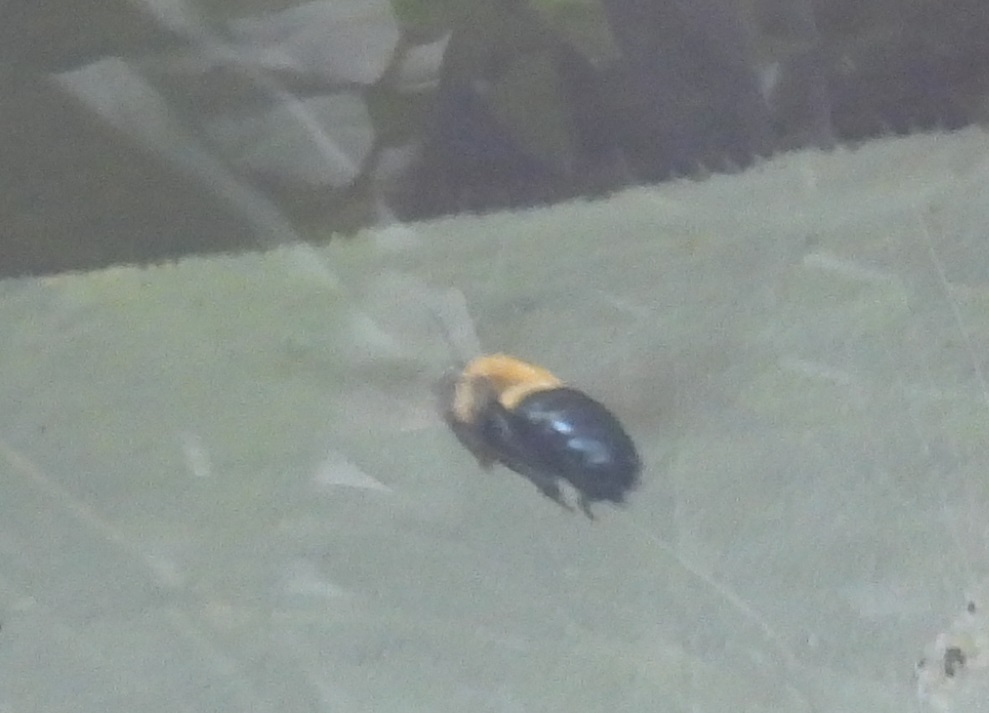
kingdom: Animalia
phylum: Arthropoda
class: Insecta
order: Hymenoptera
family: Apidae
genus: Xylocopa
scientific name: Xylocopa virginica
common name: Carpenter bee
